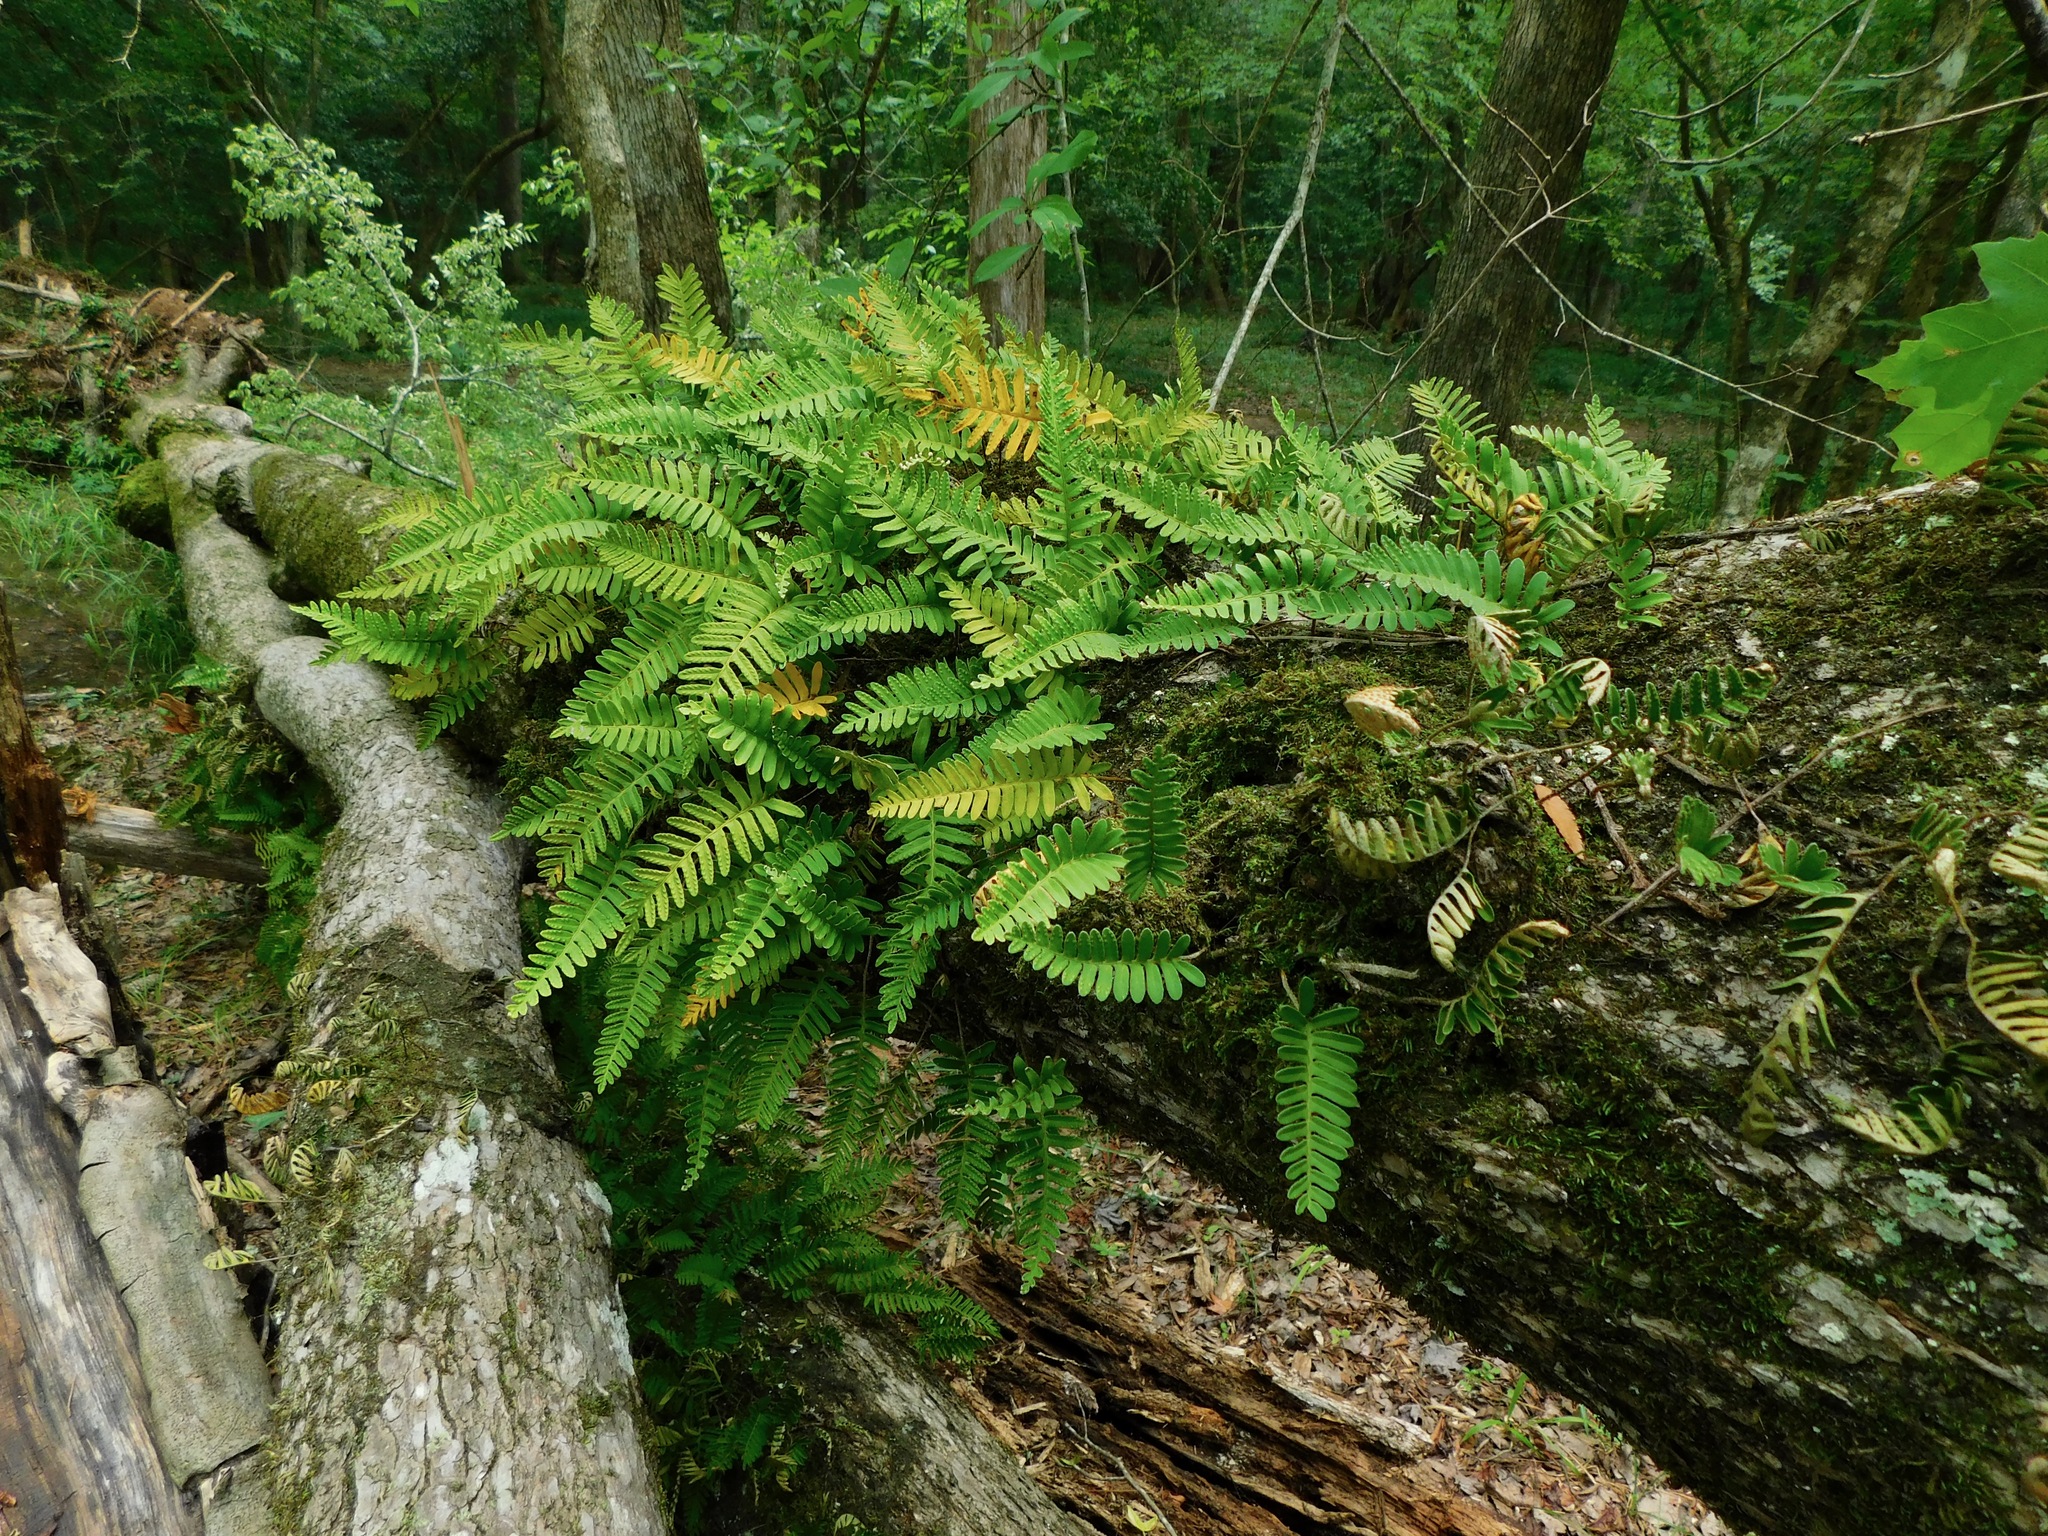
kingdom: Plantae
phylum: Tracheophyta
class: Polypodiopsida
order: Polypodiales
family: Polypodiaceae
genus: Pleopeltis
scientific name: Pleopeltis michauxiana
